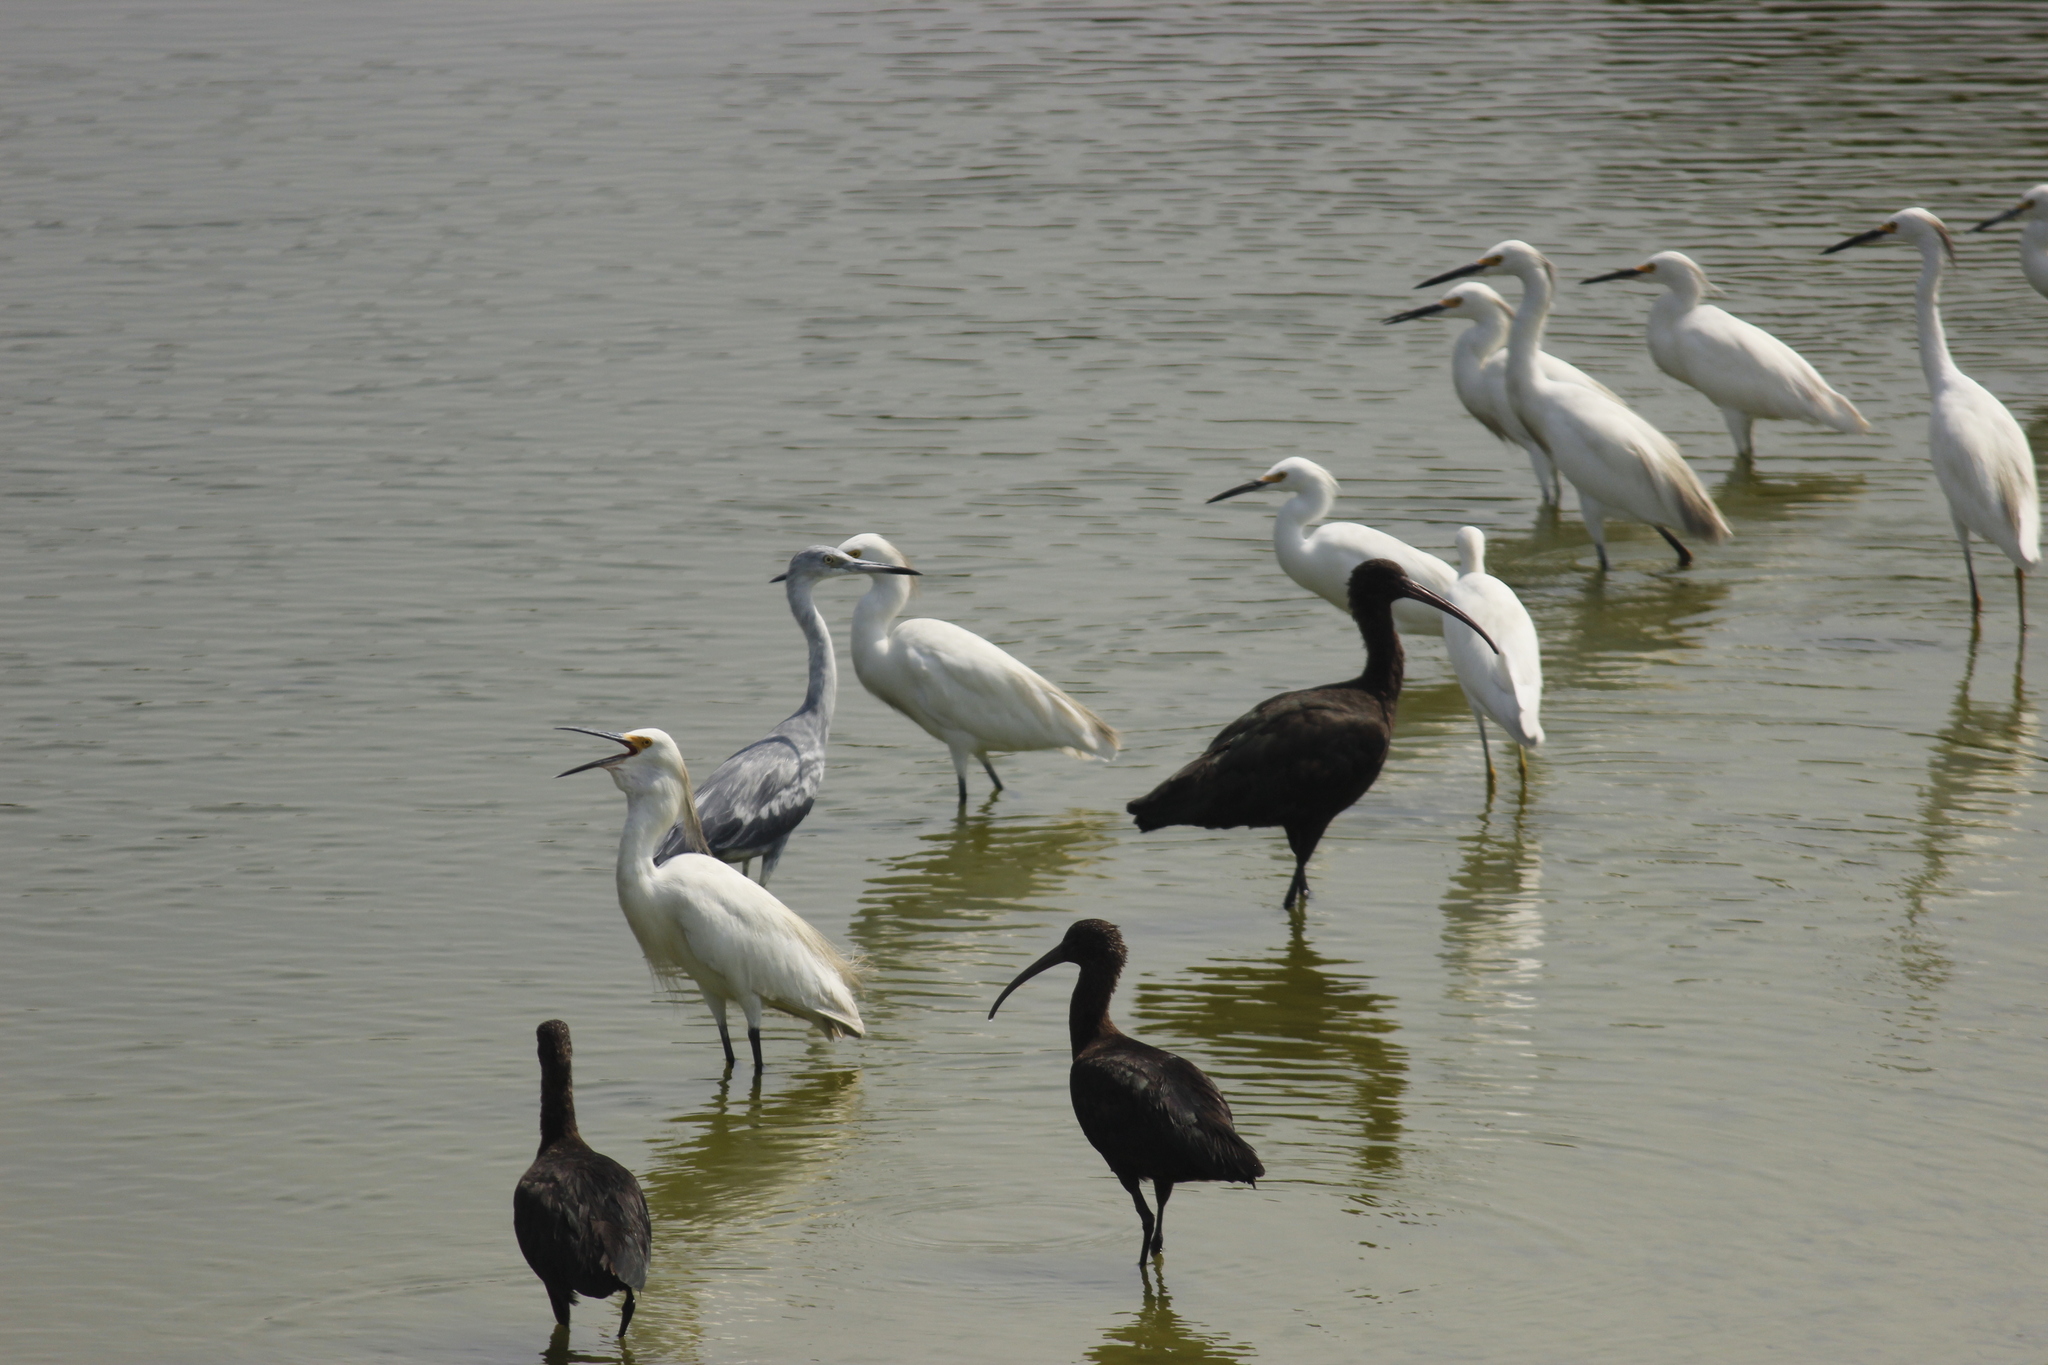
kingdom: Animalia
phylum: Chordata
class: Aves
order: Pelecaniformes
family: Ardeidae
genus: Egretta
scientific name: Egretta caerulea
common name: Little blue heron
